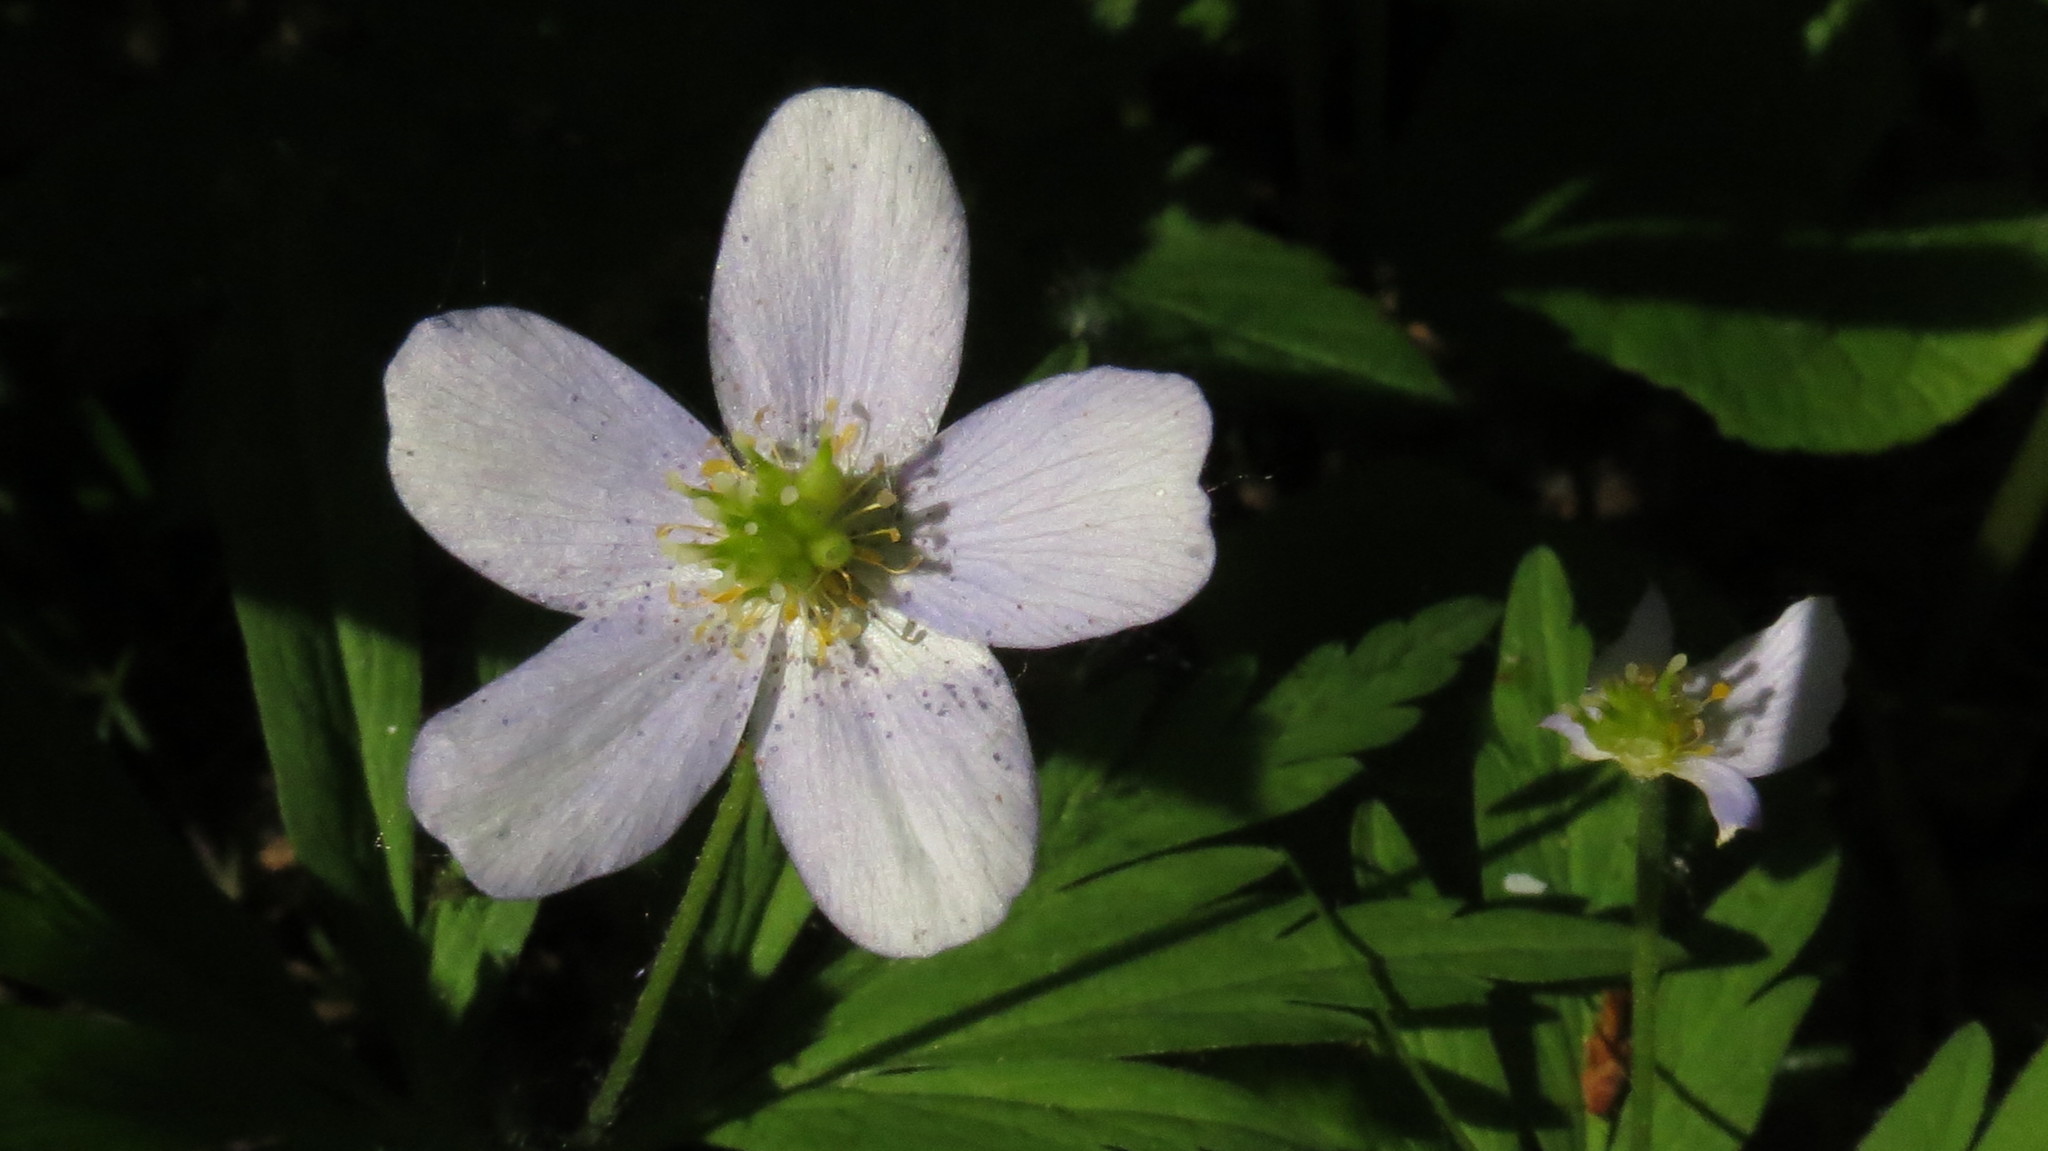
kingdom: Plantae
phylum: Tracheophyta
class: Magnoliopsida
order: Ranunculales
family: Ranunculaceae
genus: Anemone
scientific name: Anemone caerulea
